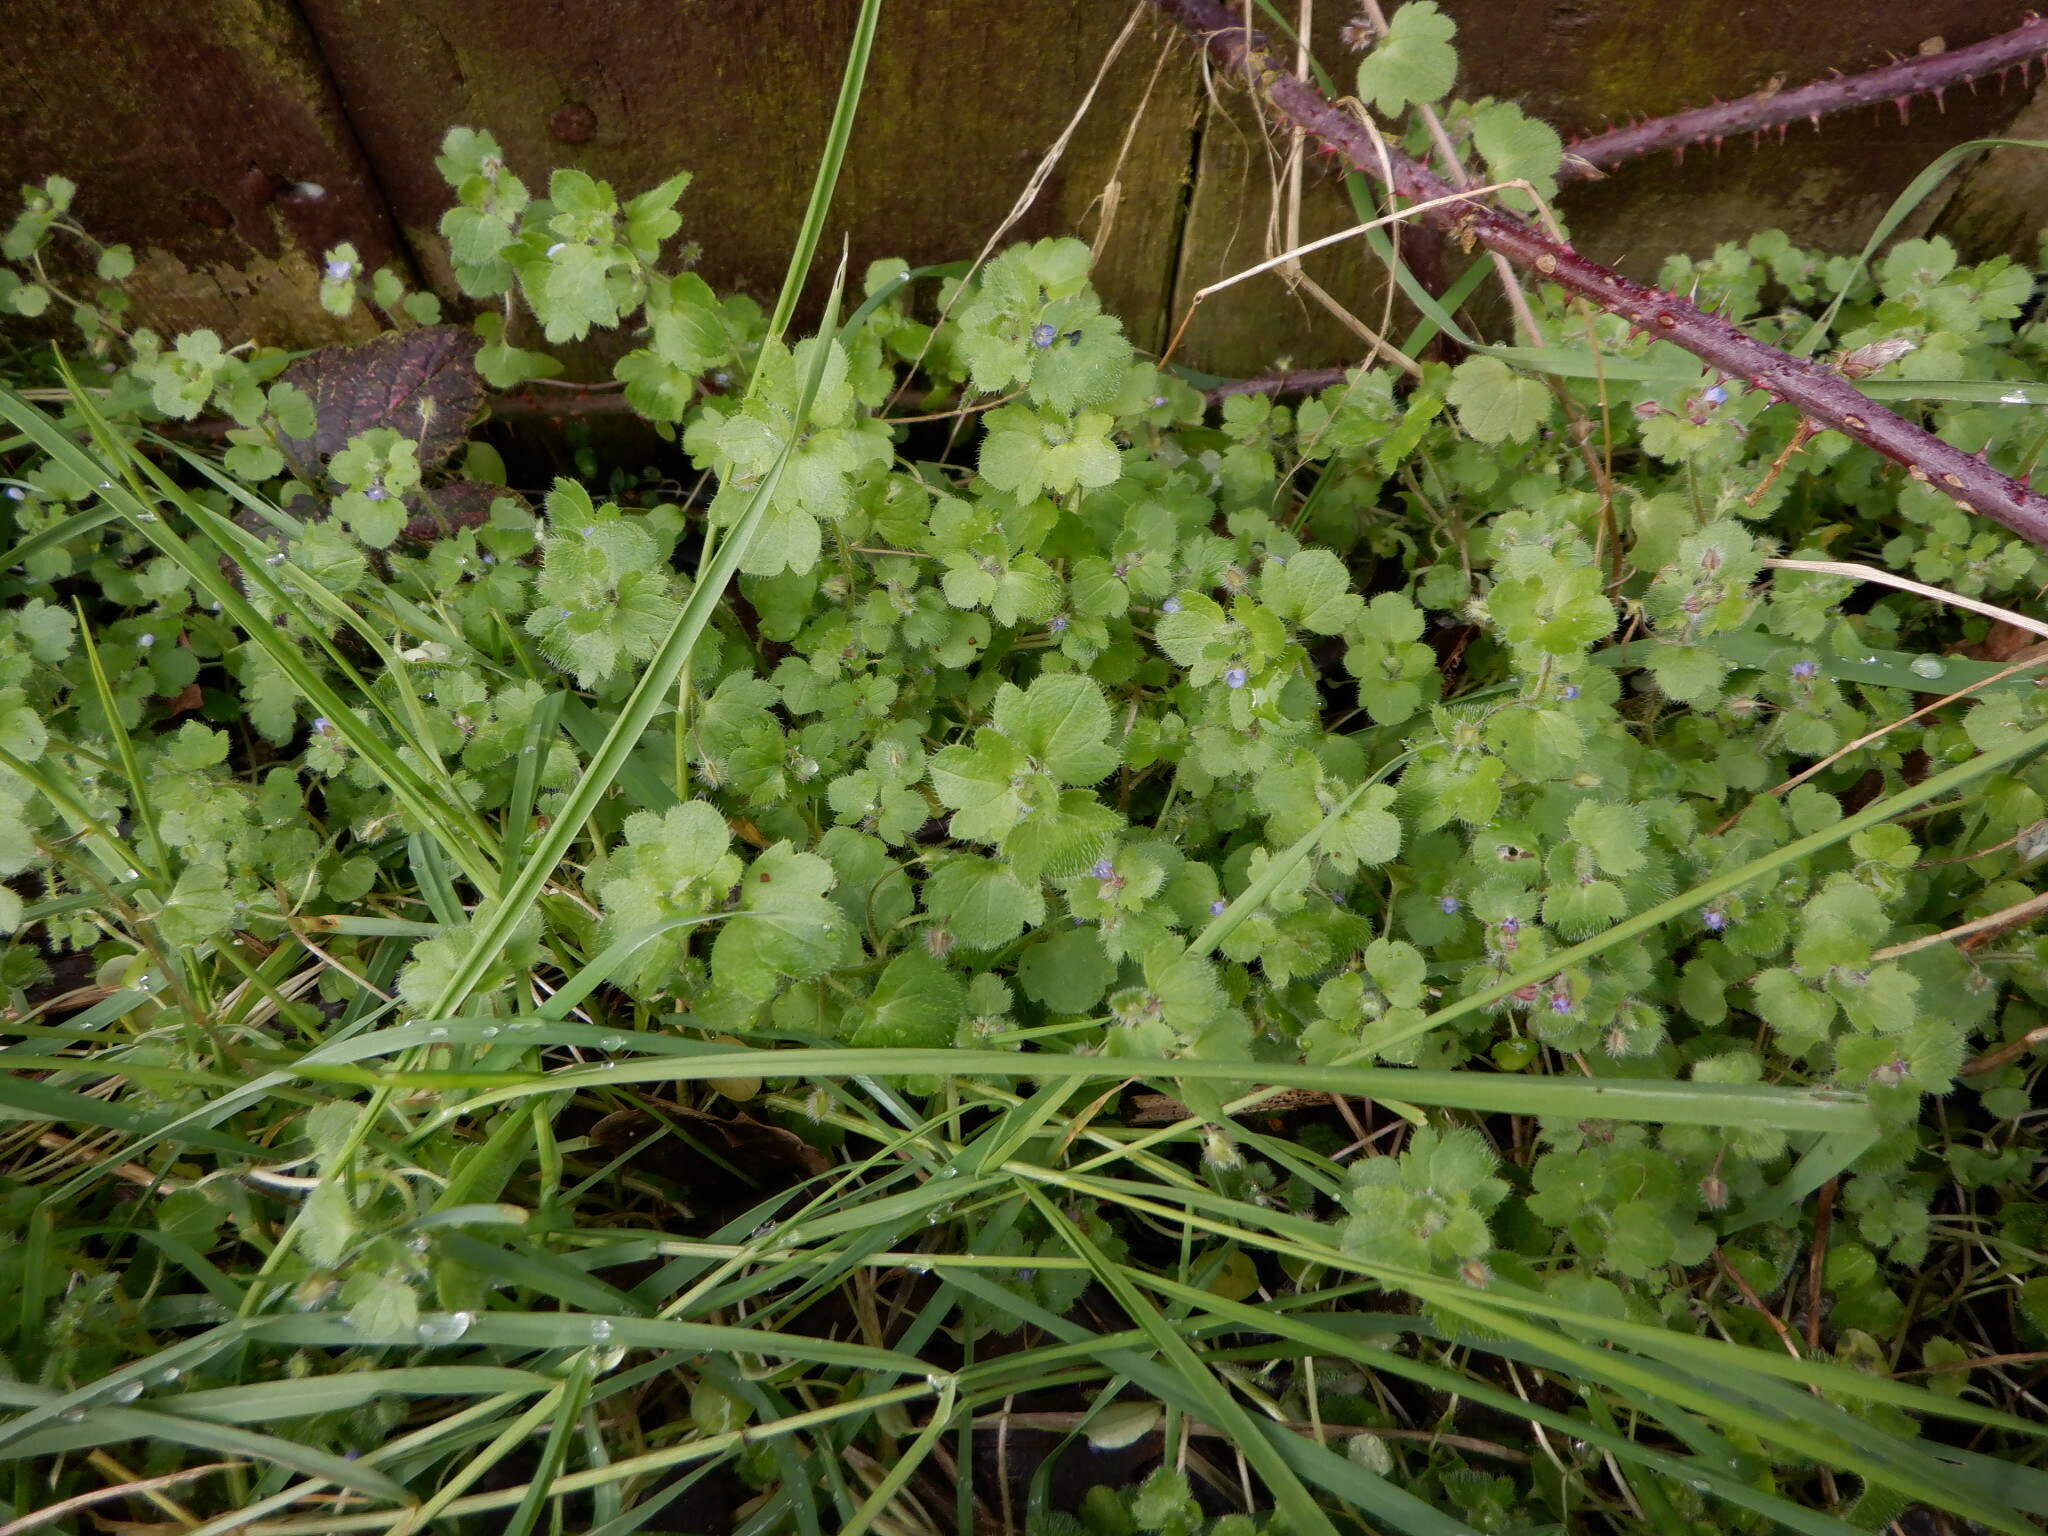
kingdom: Plantae
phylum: Tracheophyta
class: Magnoliopsida
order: Lamiales
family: Plantaginaceae
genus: Veronica
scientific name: Veronica sublobata
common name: False ivy-leaved speedwell
